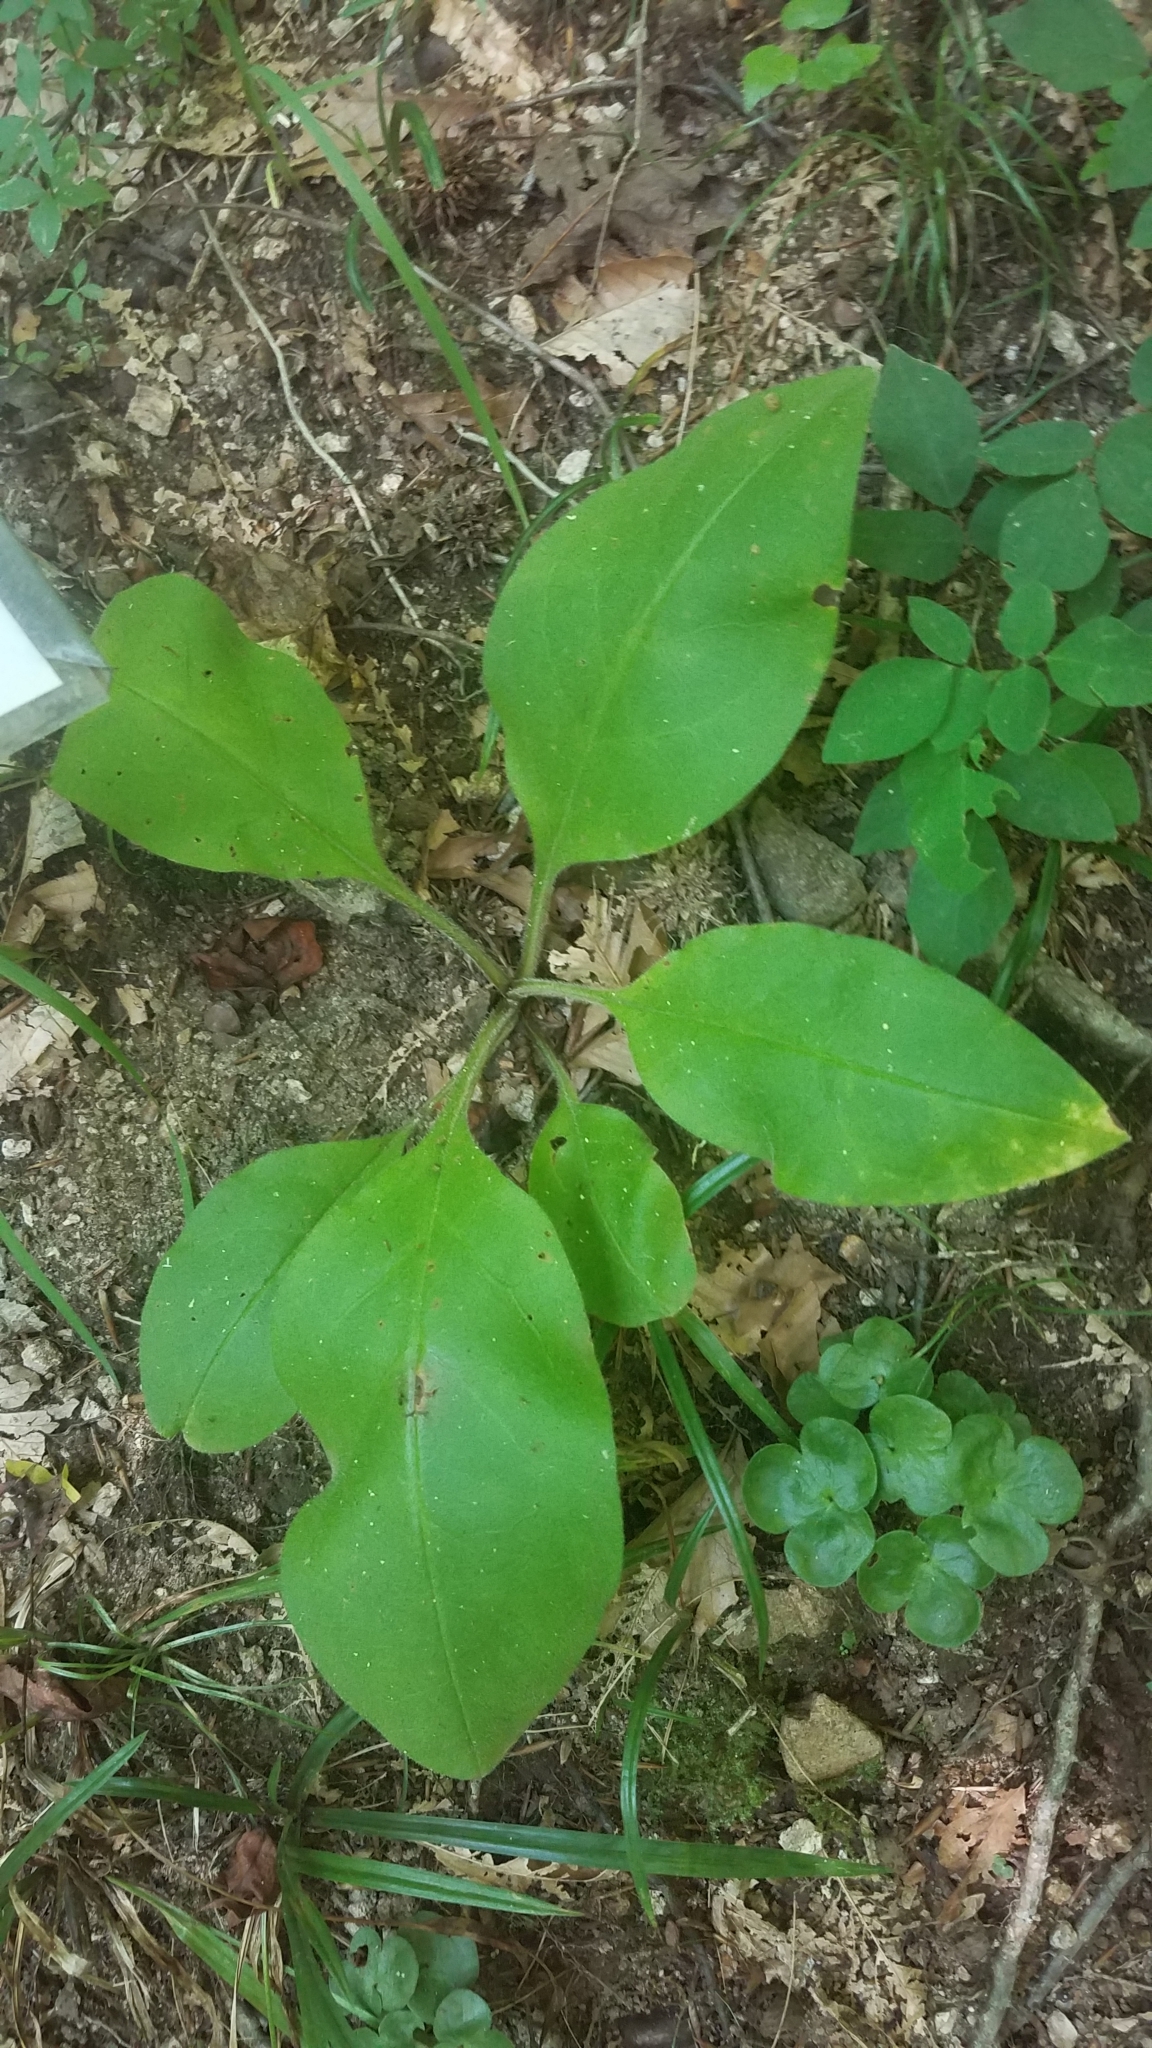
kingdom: Plantae
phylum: Tracheophyta
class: Magnoliopsida
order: Boraginales
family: Boraginaceae
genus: Andersonglossum
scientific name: Andersonglossum virginianum
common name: Wild comfrey
